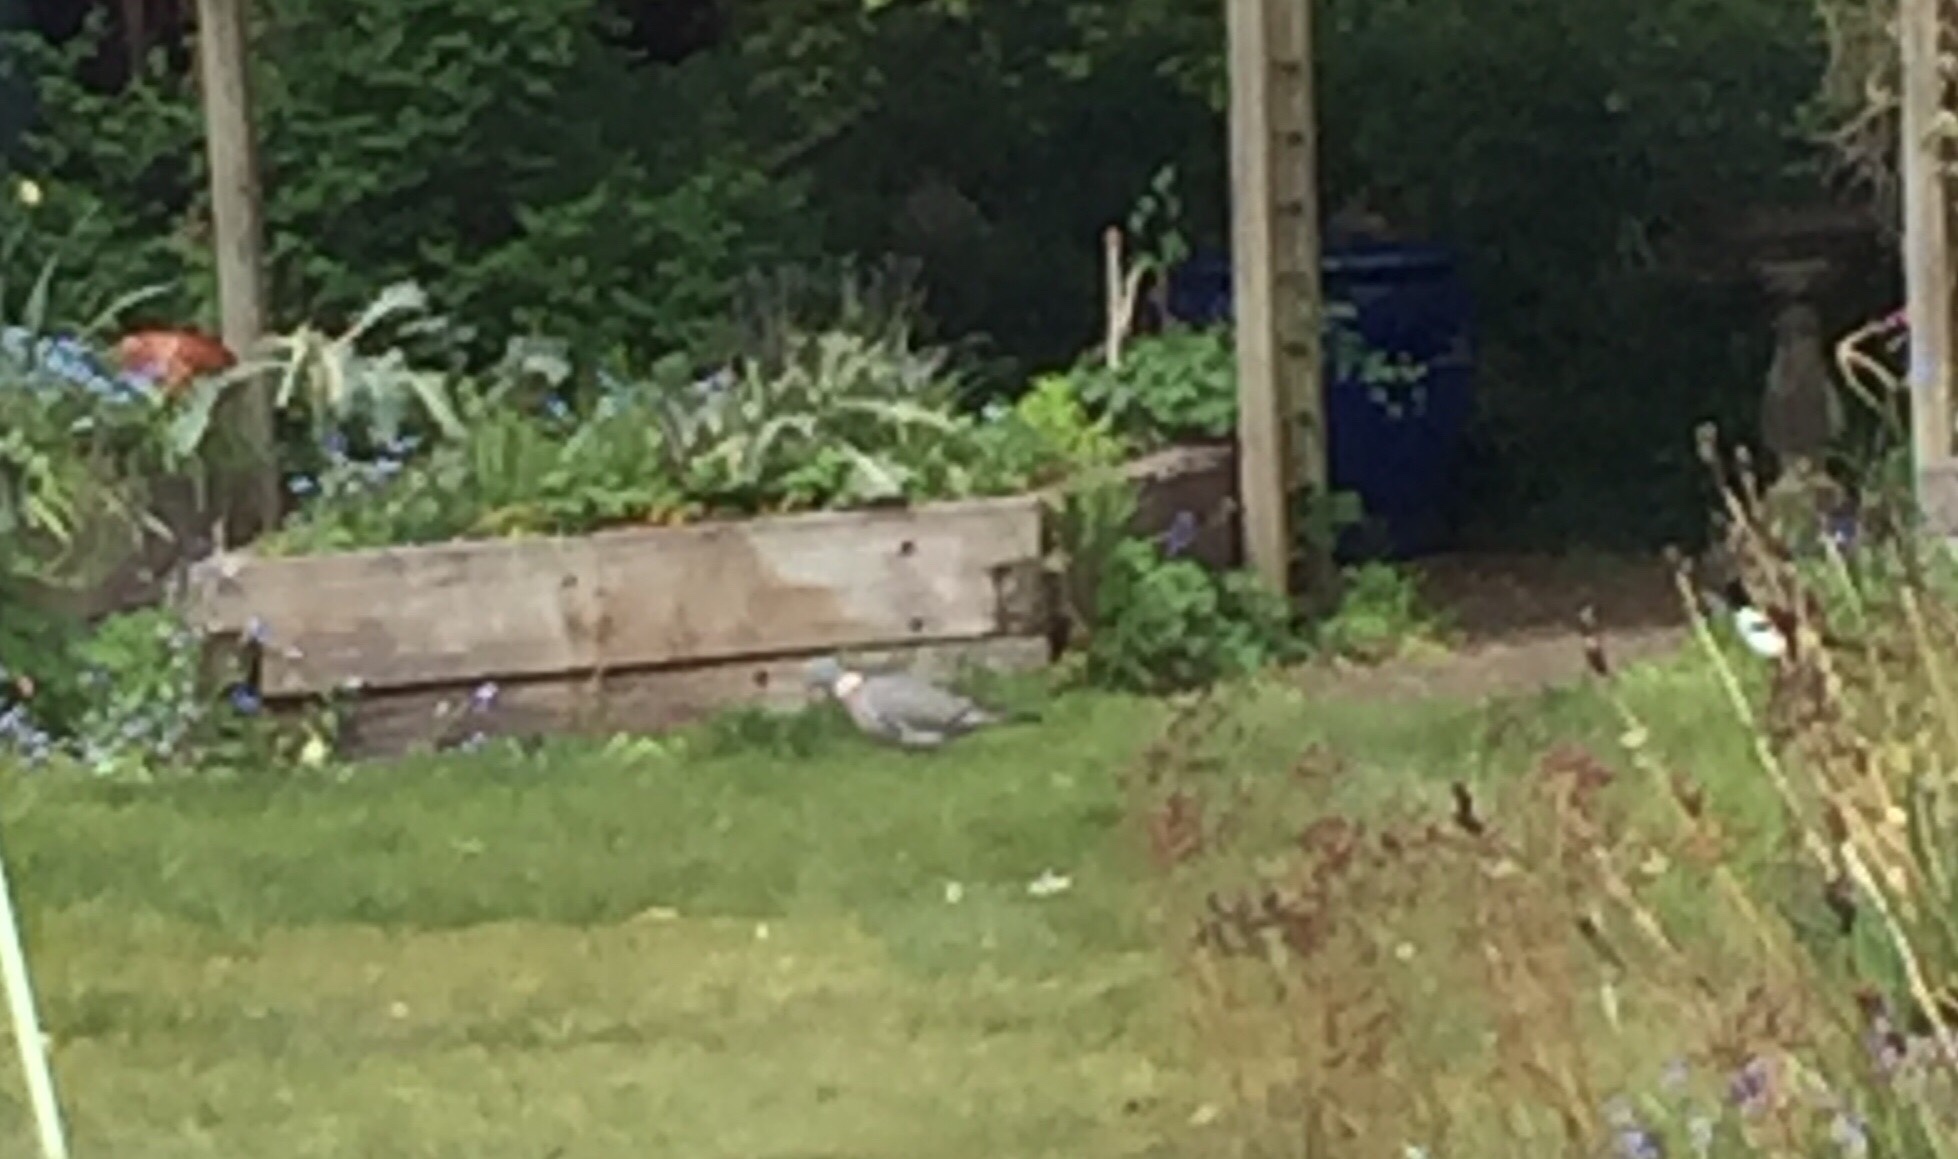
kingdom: Animalia
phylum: Chordata
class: Aves
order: Columbiformes
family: Columbidae
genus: Columba
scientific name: Columba palumbus
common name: Common wood pigeon
